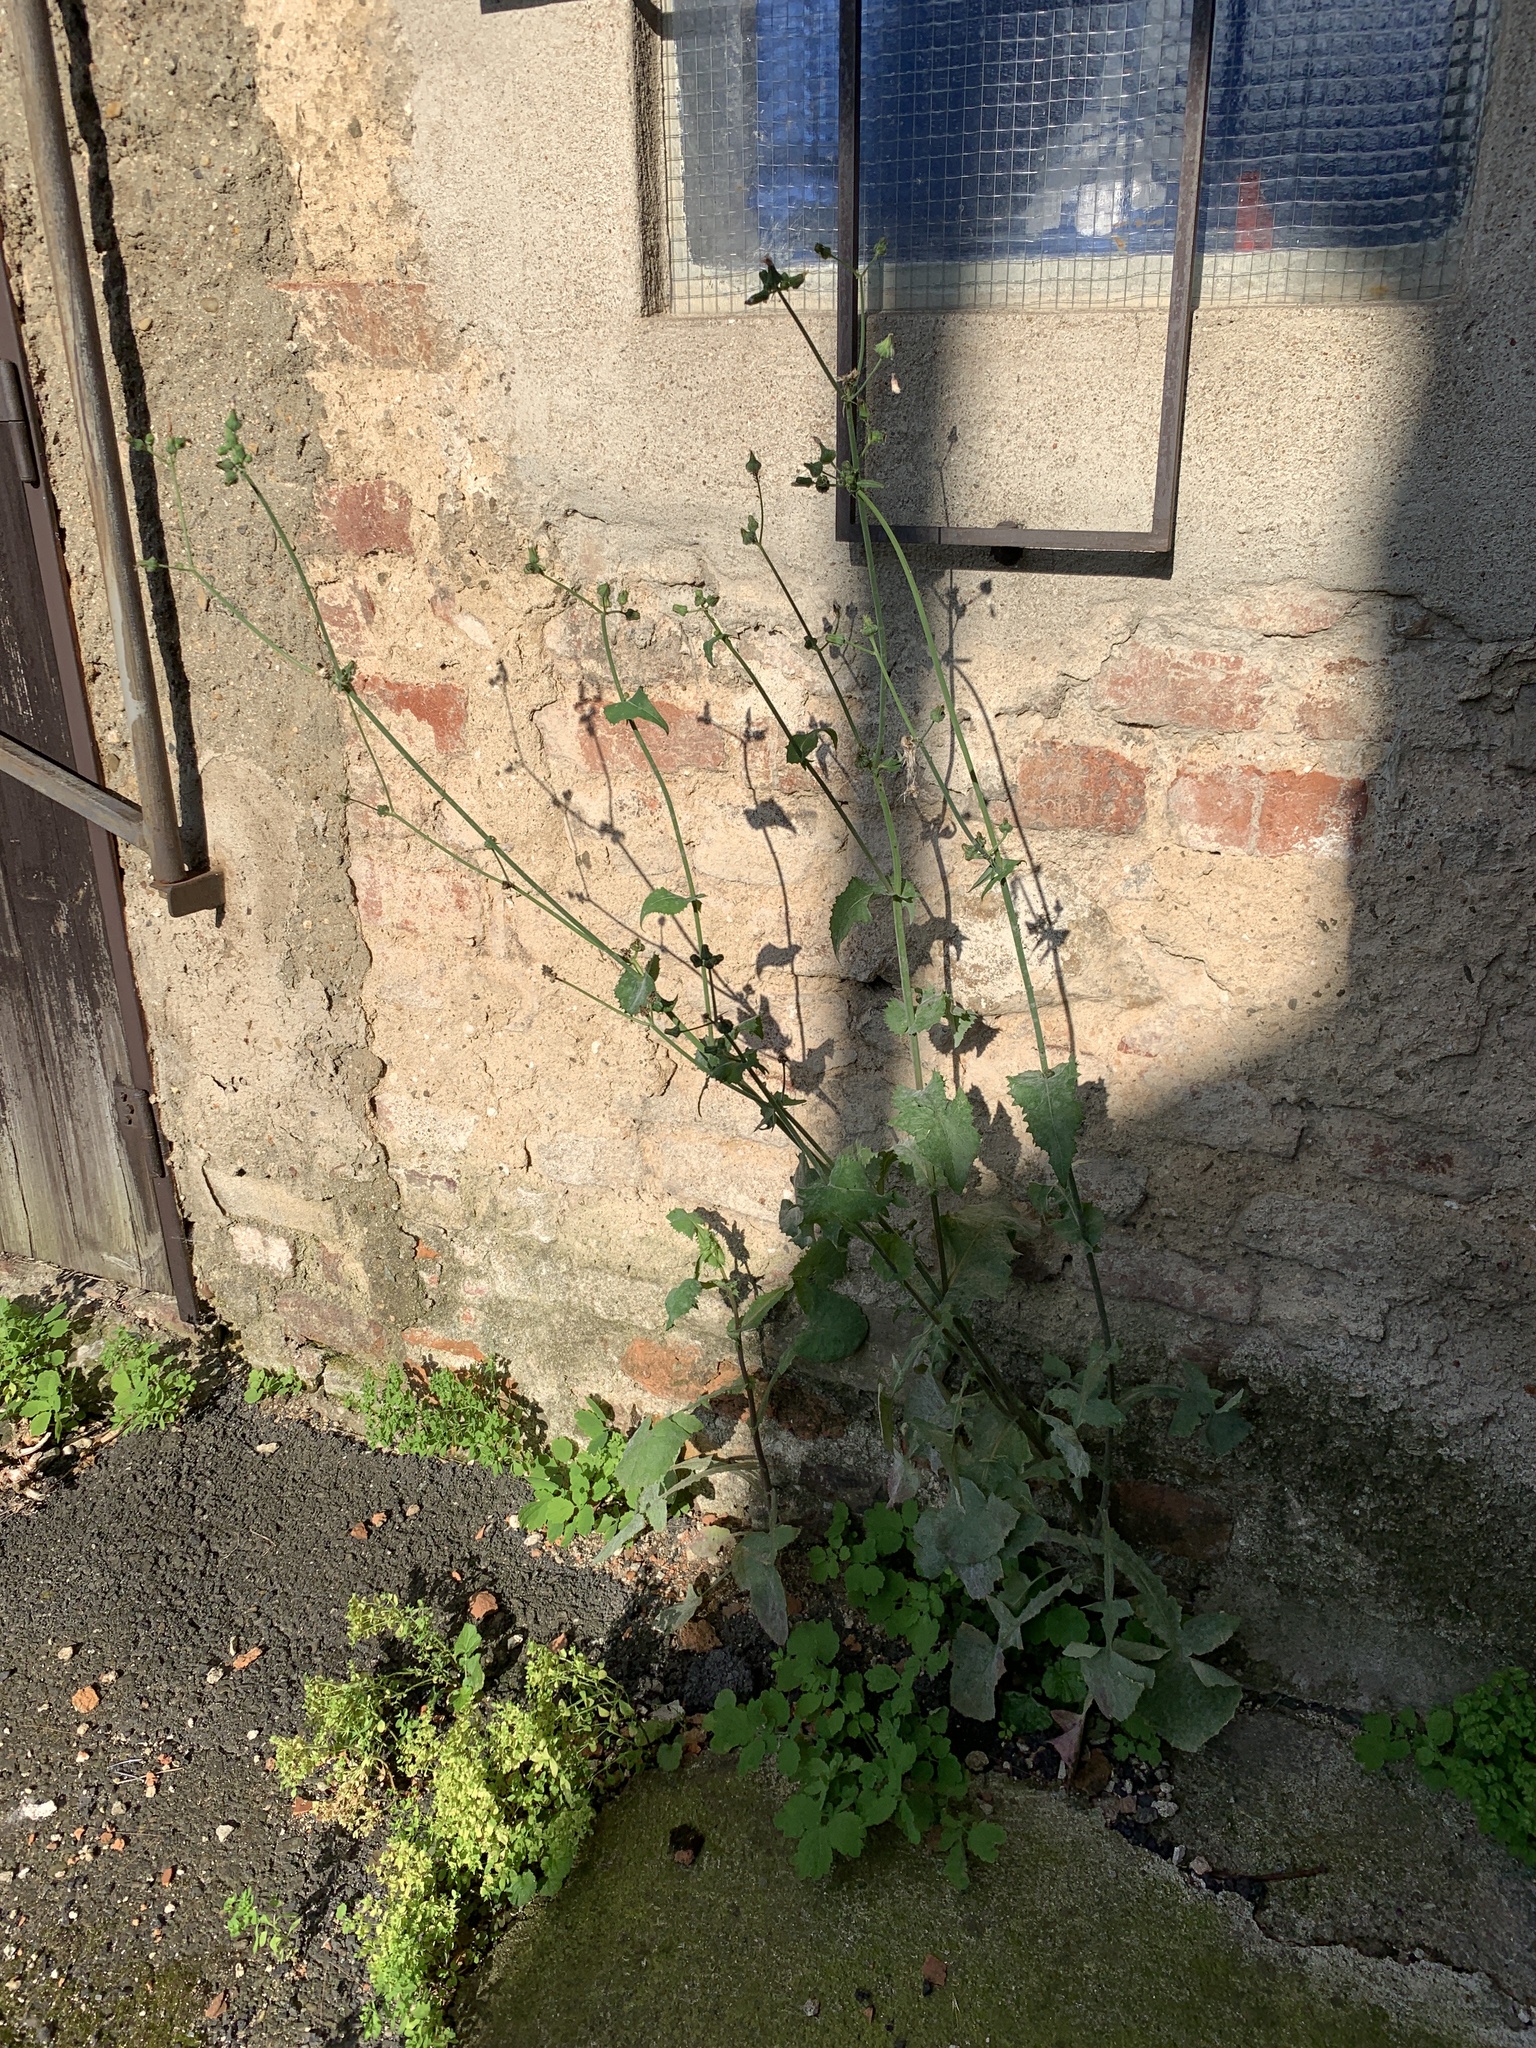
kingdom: Plantae
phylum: Tracheophyta
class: Magnoliopsida
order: Asterales
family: Asteraceae
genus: Sonchus
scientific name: Sonchus oleraceus
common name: Common sowthistle
